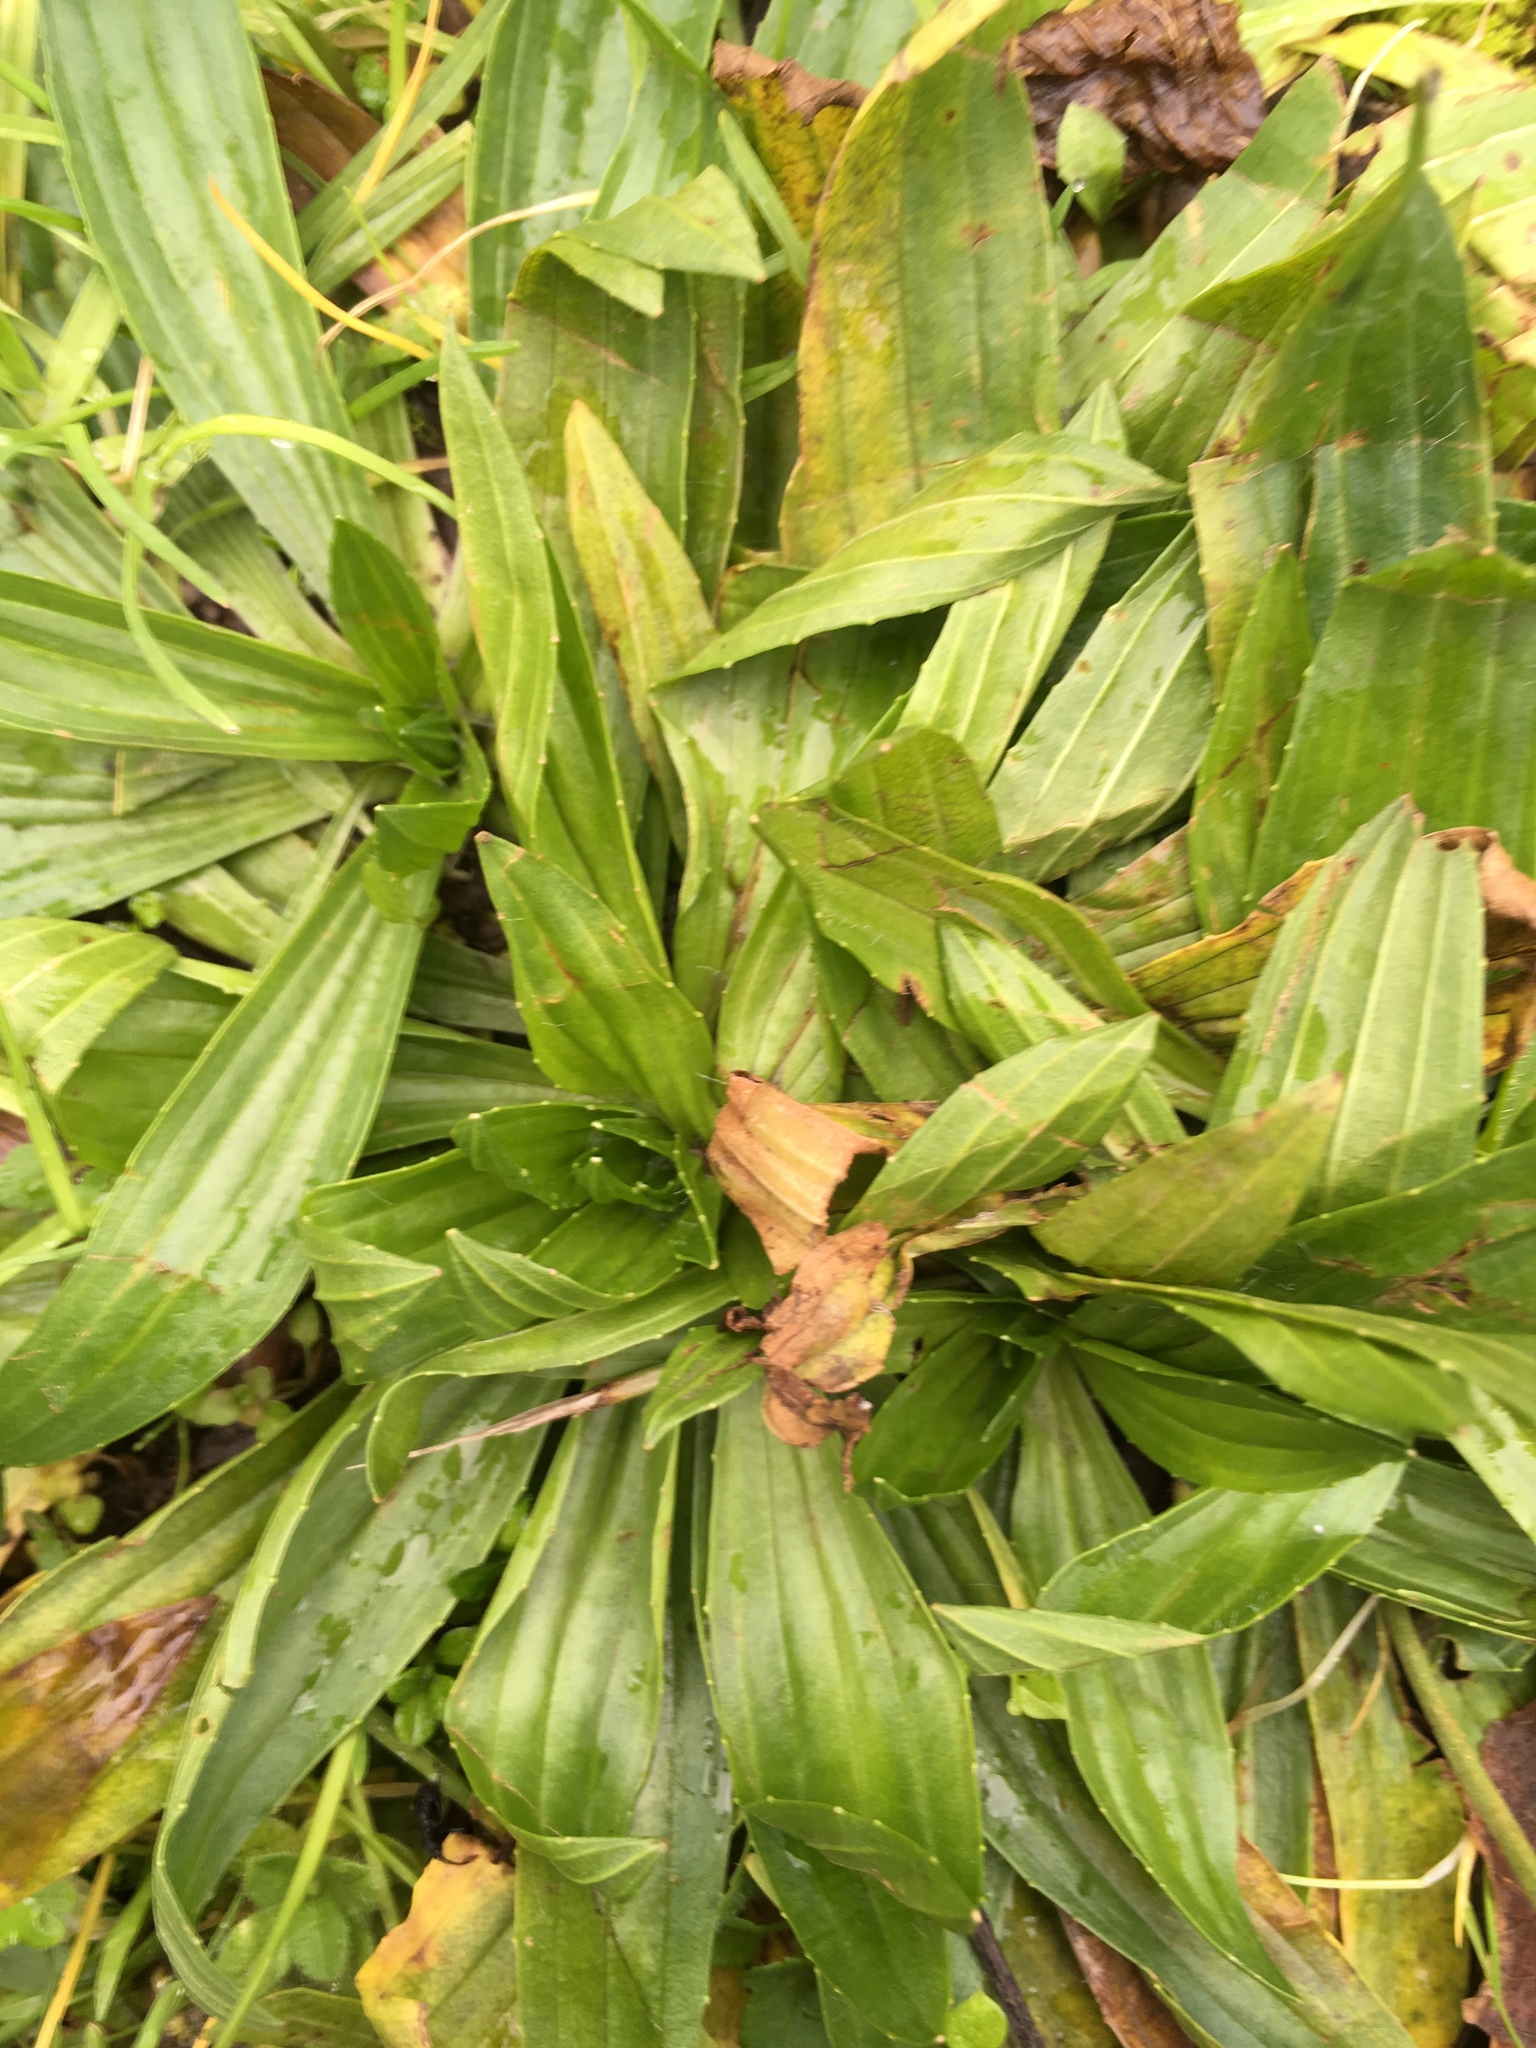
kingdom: Plantae
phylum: Tracheophyta
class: Magnoliopsida
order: Lamiales
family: Plantaginaceae
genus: Plantago
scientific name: Plantago lanceolata
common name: Ribwort plantain
